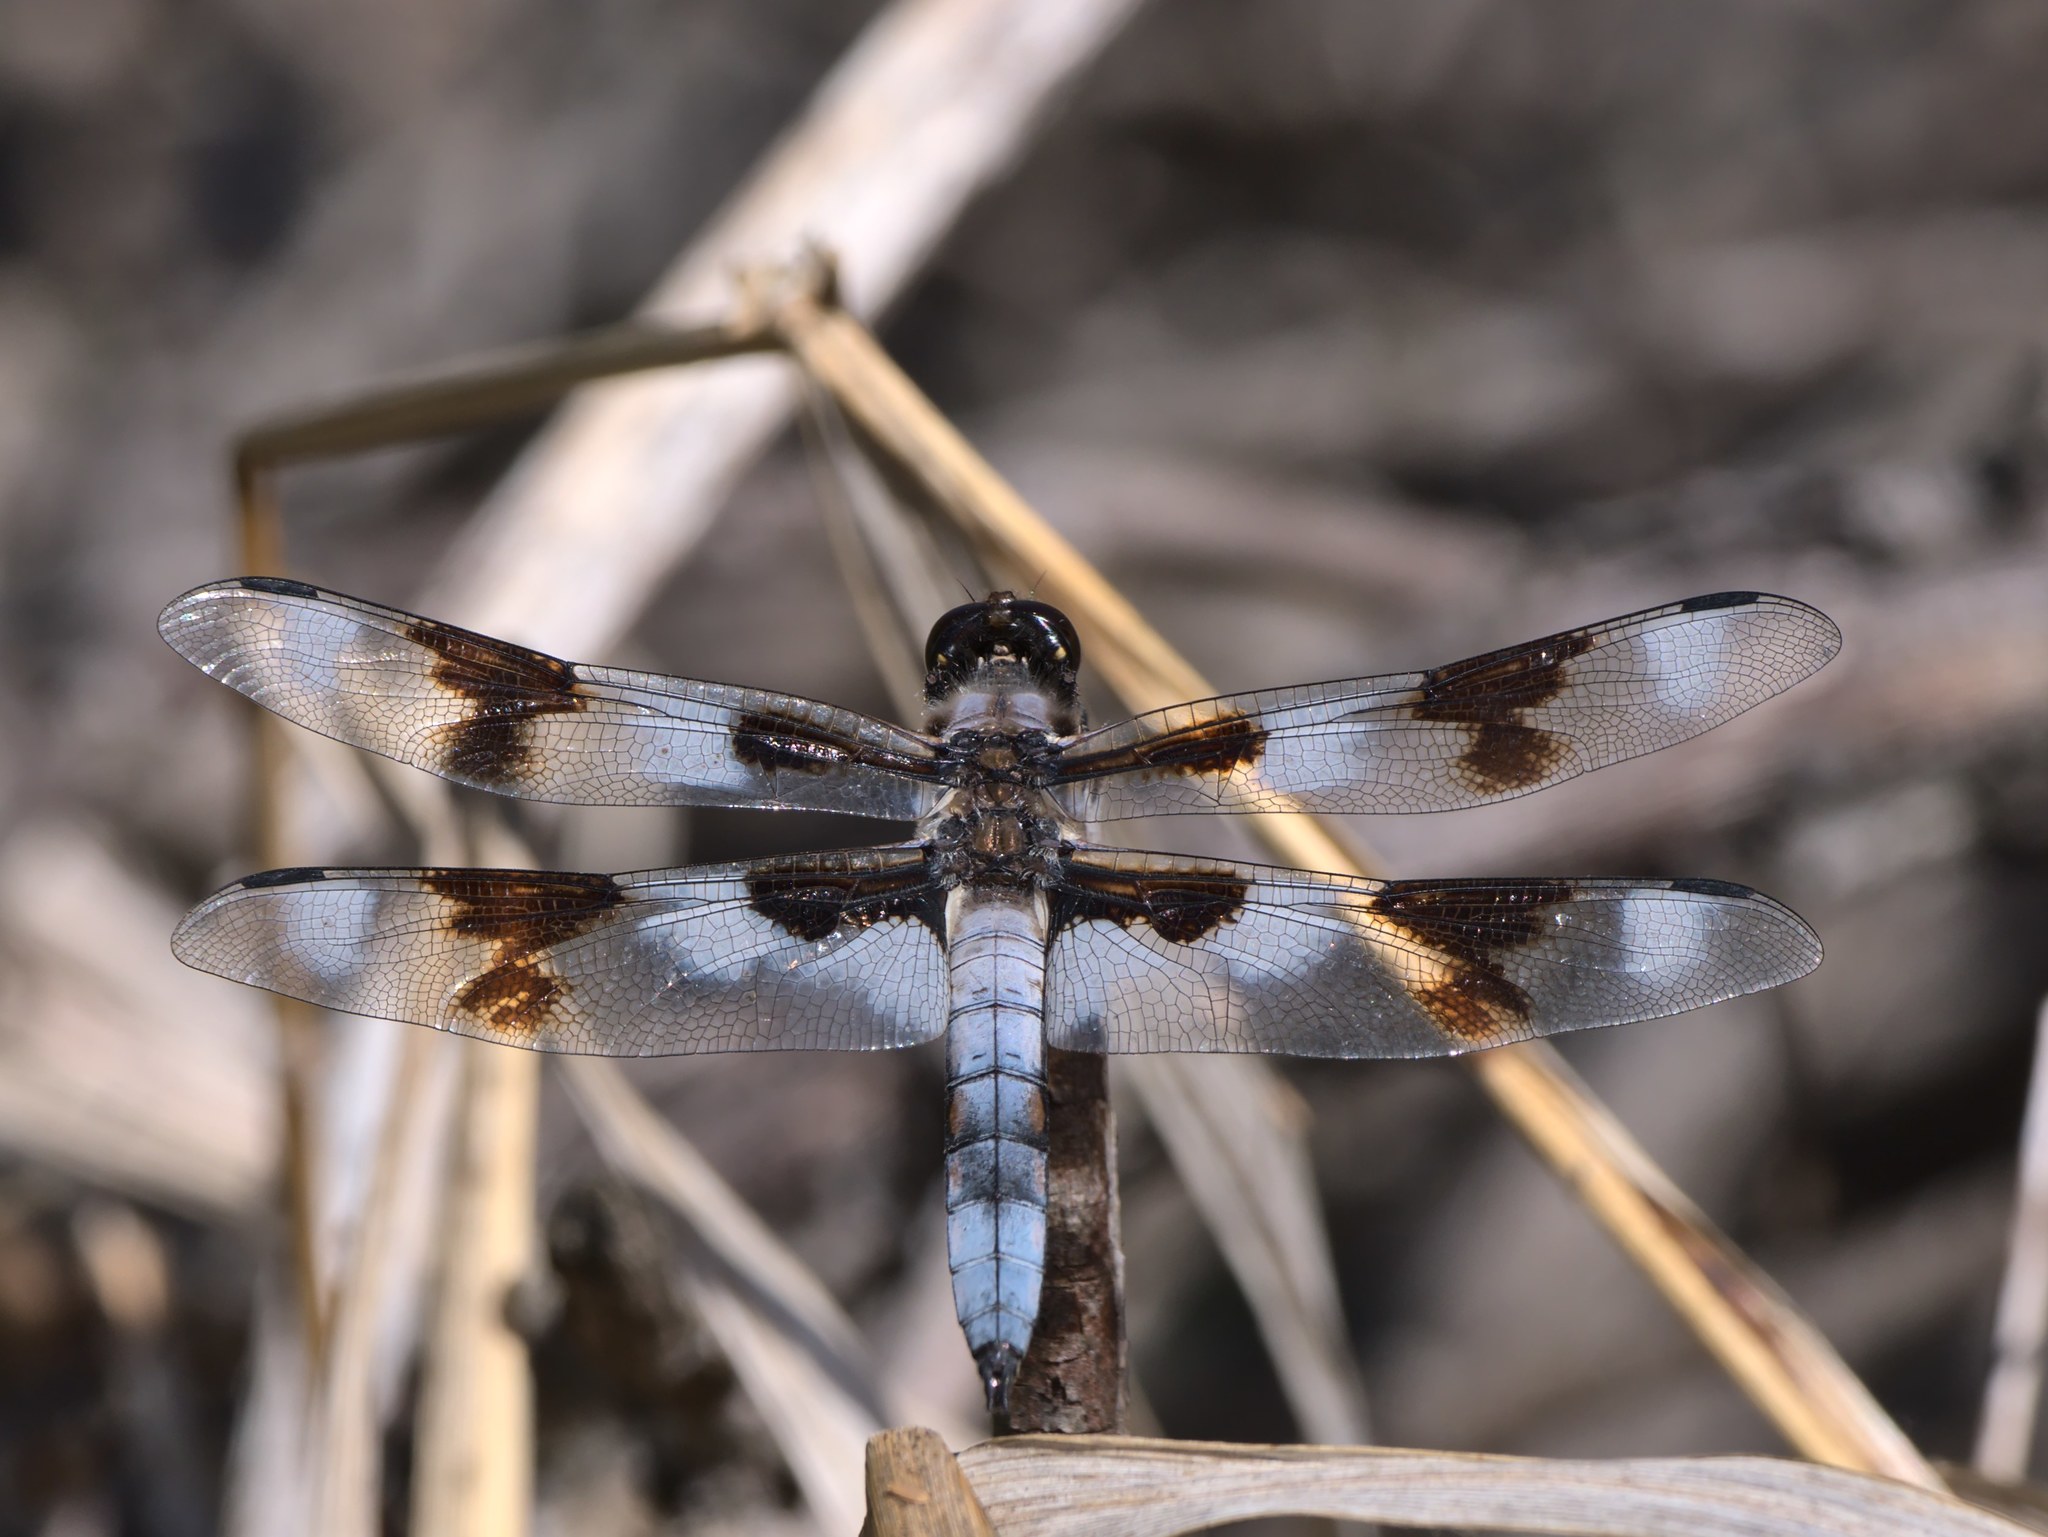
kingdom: Animalia
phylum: Arthropoda
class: Insecta
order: Odonata
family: Libellulidae
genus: Libellula
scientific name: Libellula forensis
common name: Eight-spotted skimmer
